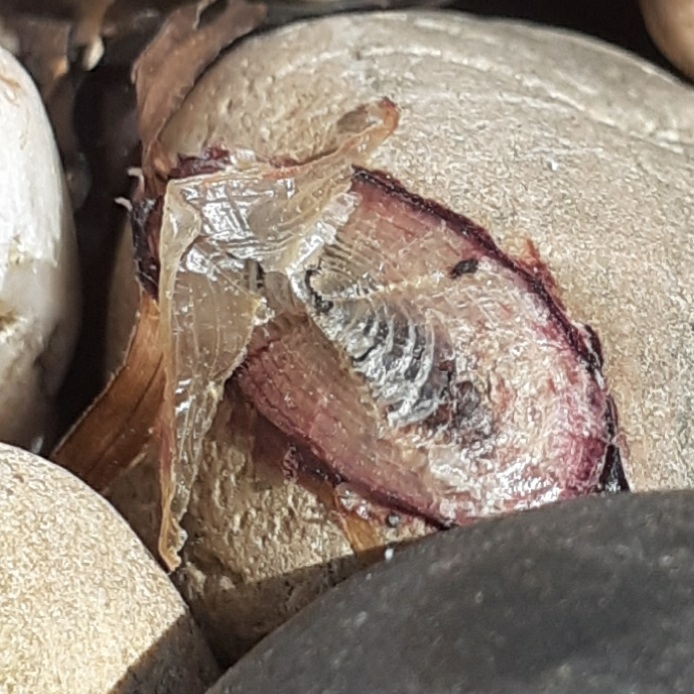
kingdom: Animalia
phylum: Cnidaria
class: Hydrozoa
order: Anthoathecata
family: Porpitidae
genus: Velella
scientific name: Velella velella
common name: By-the-wind-sailor
